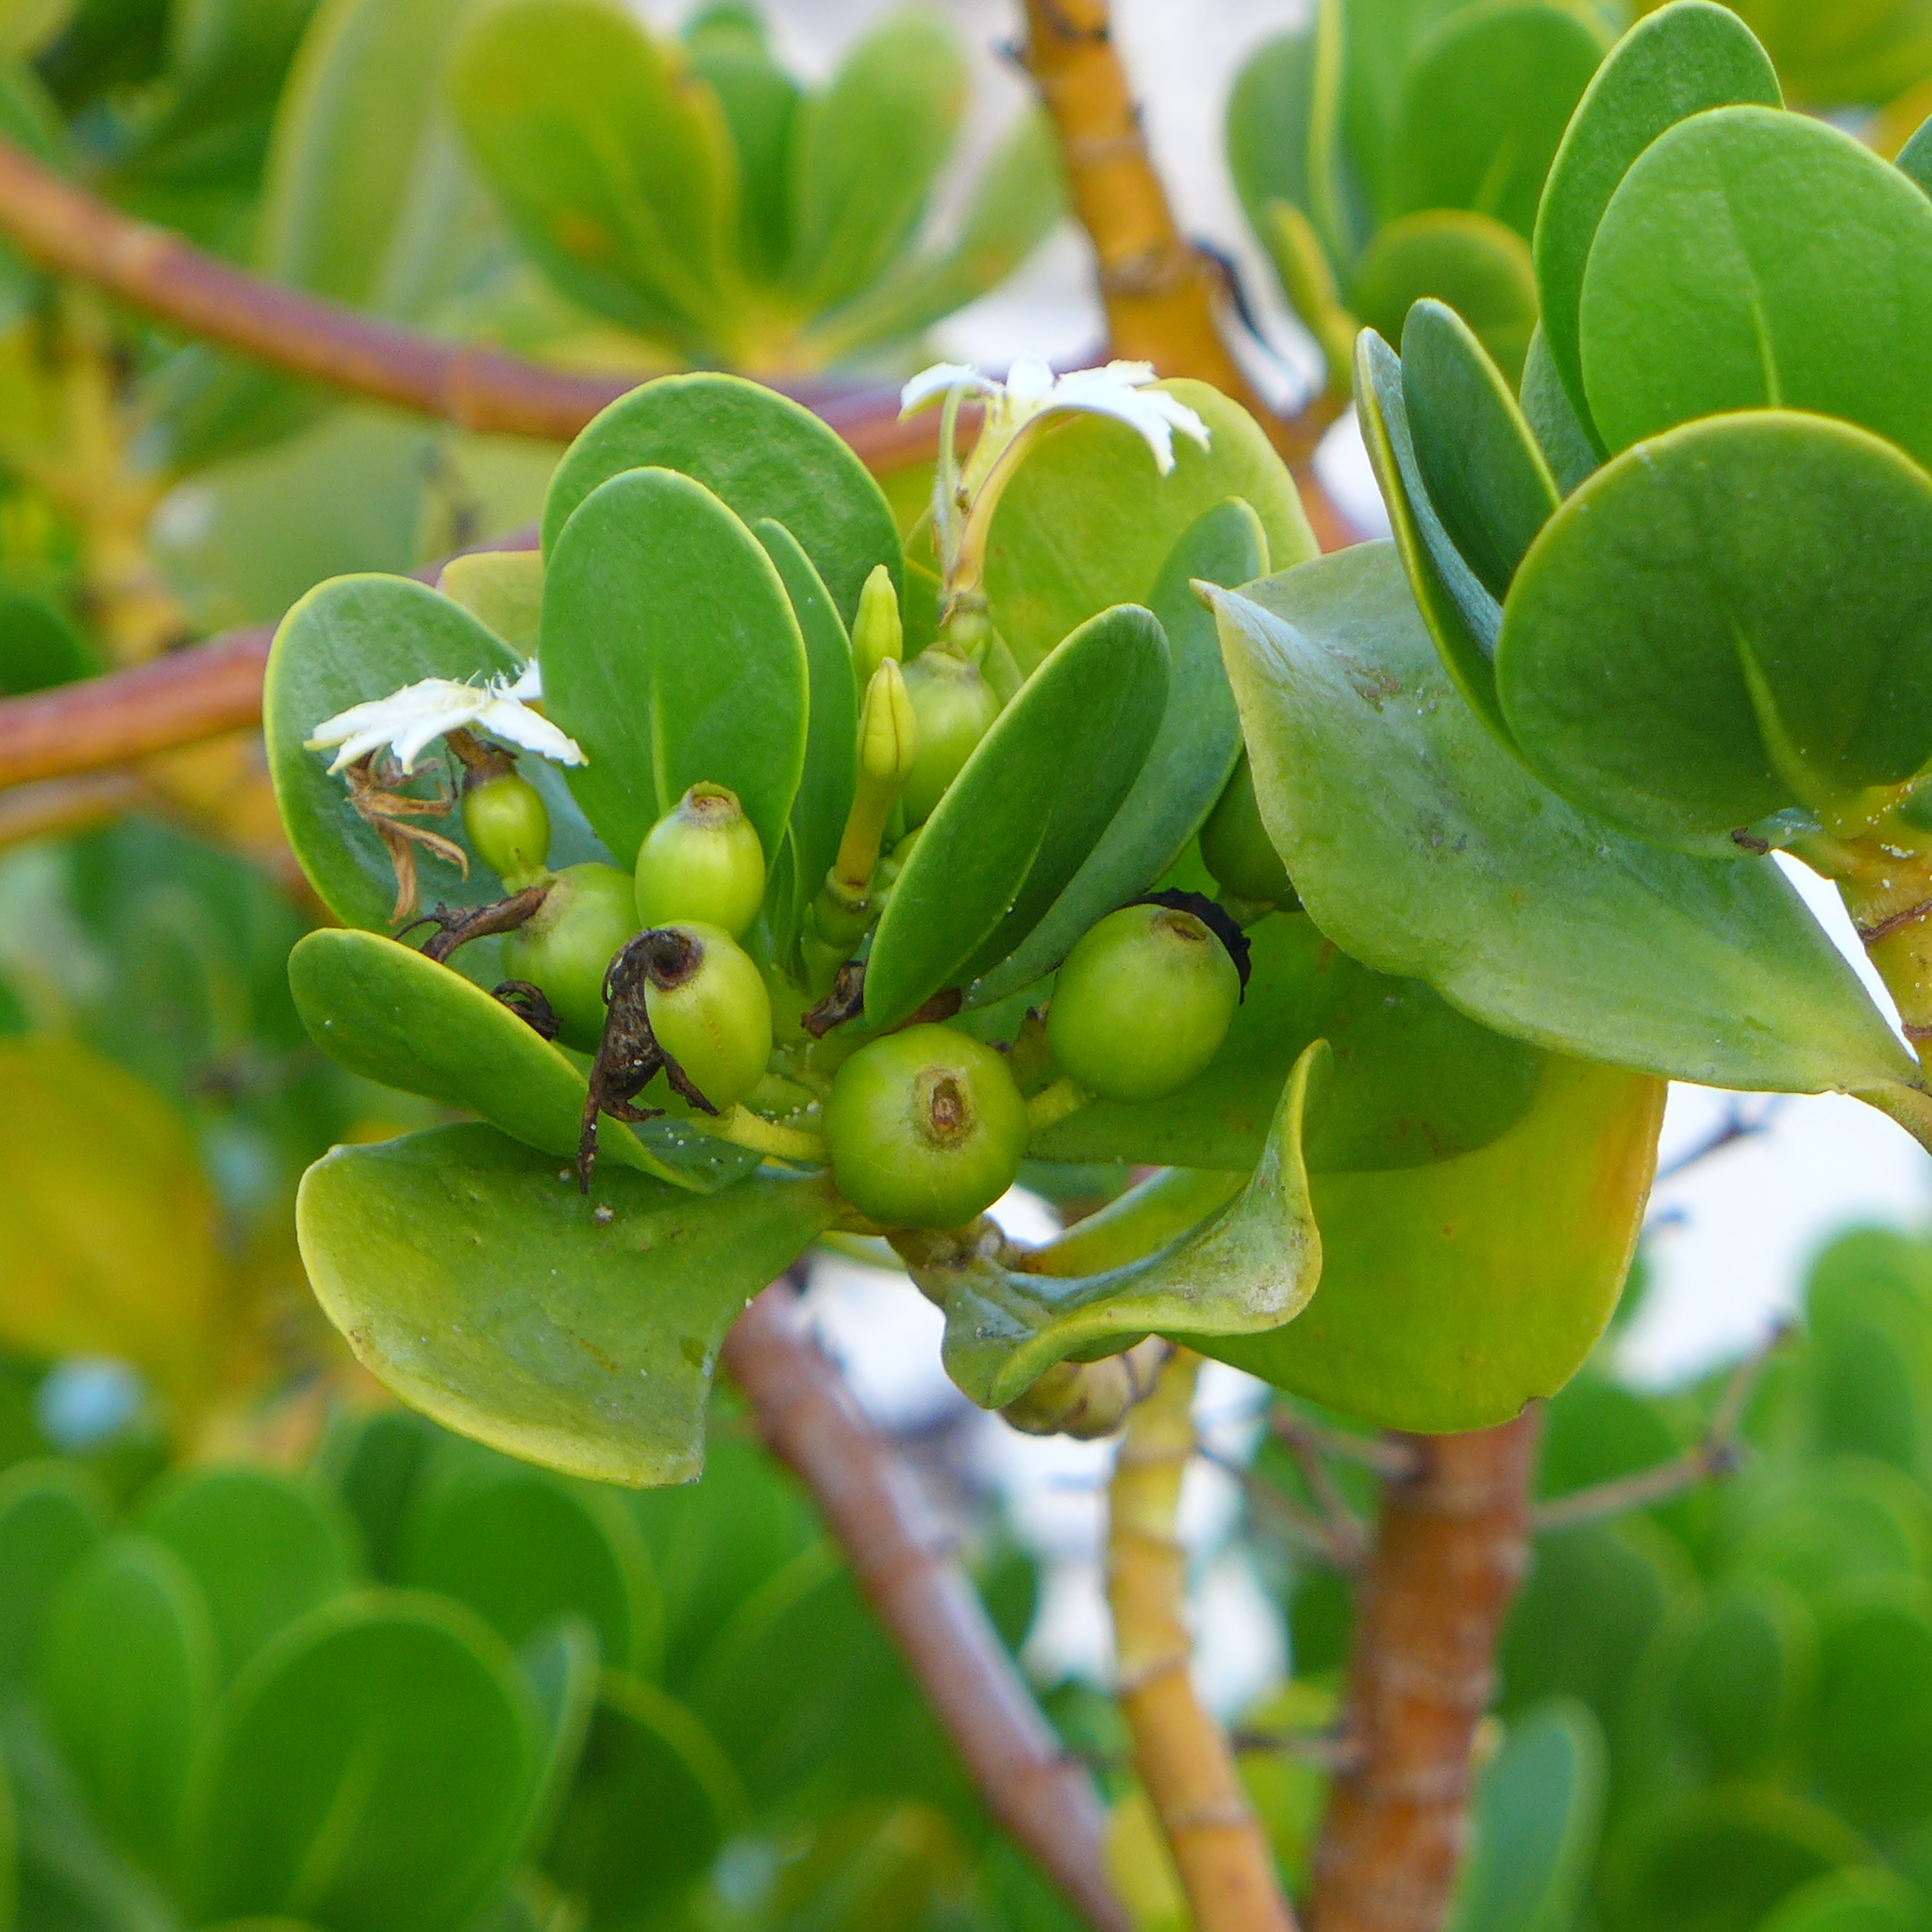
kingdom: Plantae
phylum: Tracheophyta
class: Magnoliopsida
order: Asterales
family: Goodeniaceae
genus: Scaevola
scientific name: Scaevola plumieri
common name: Gull feed
